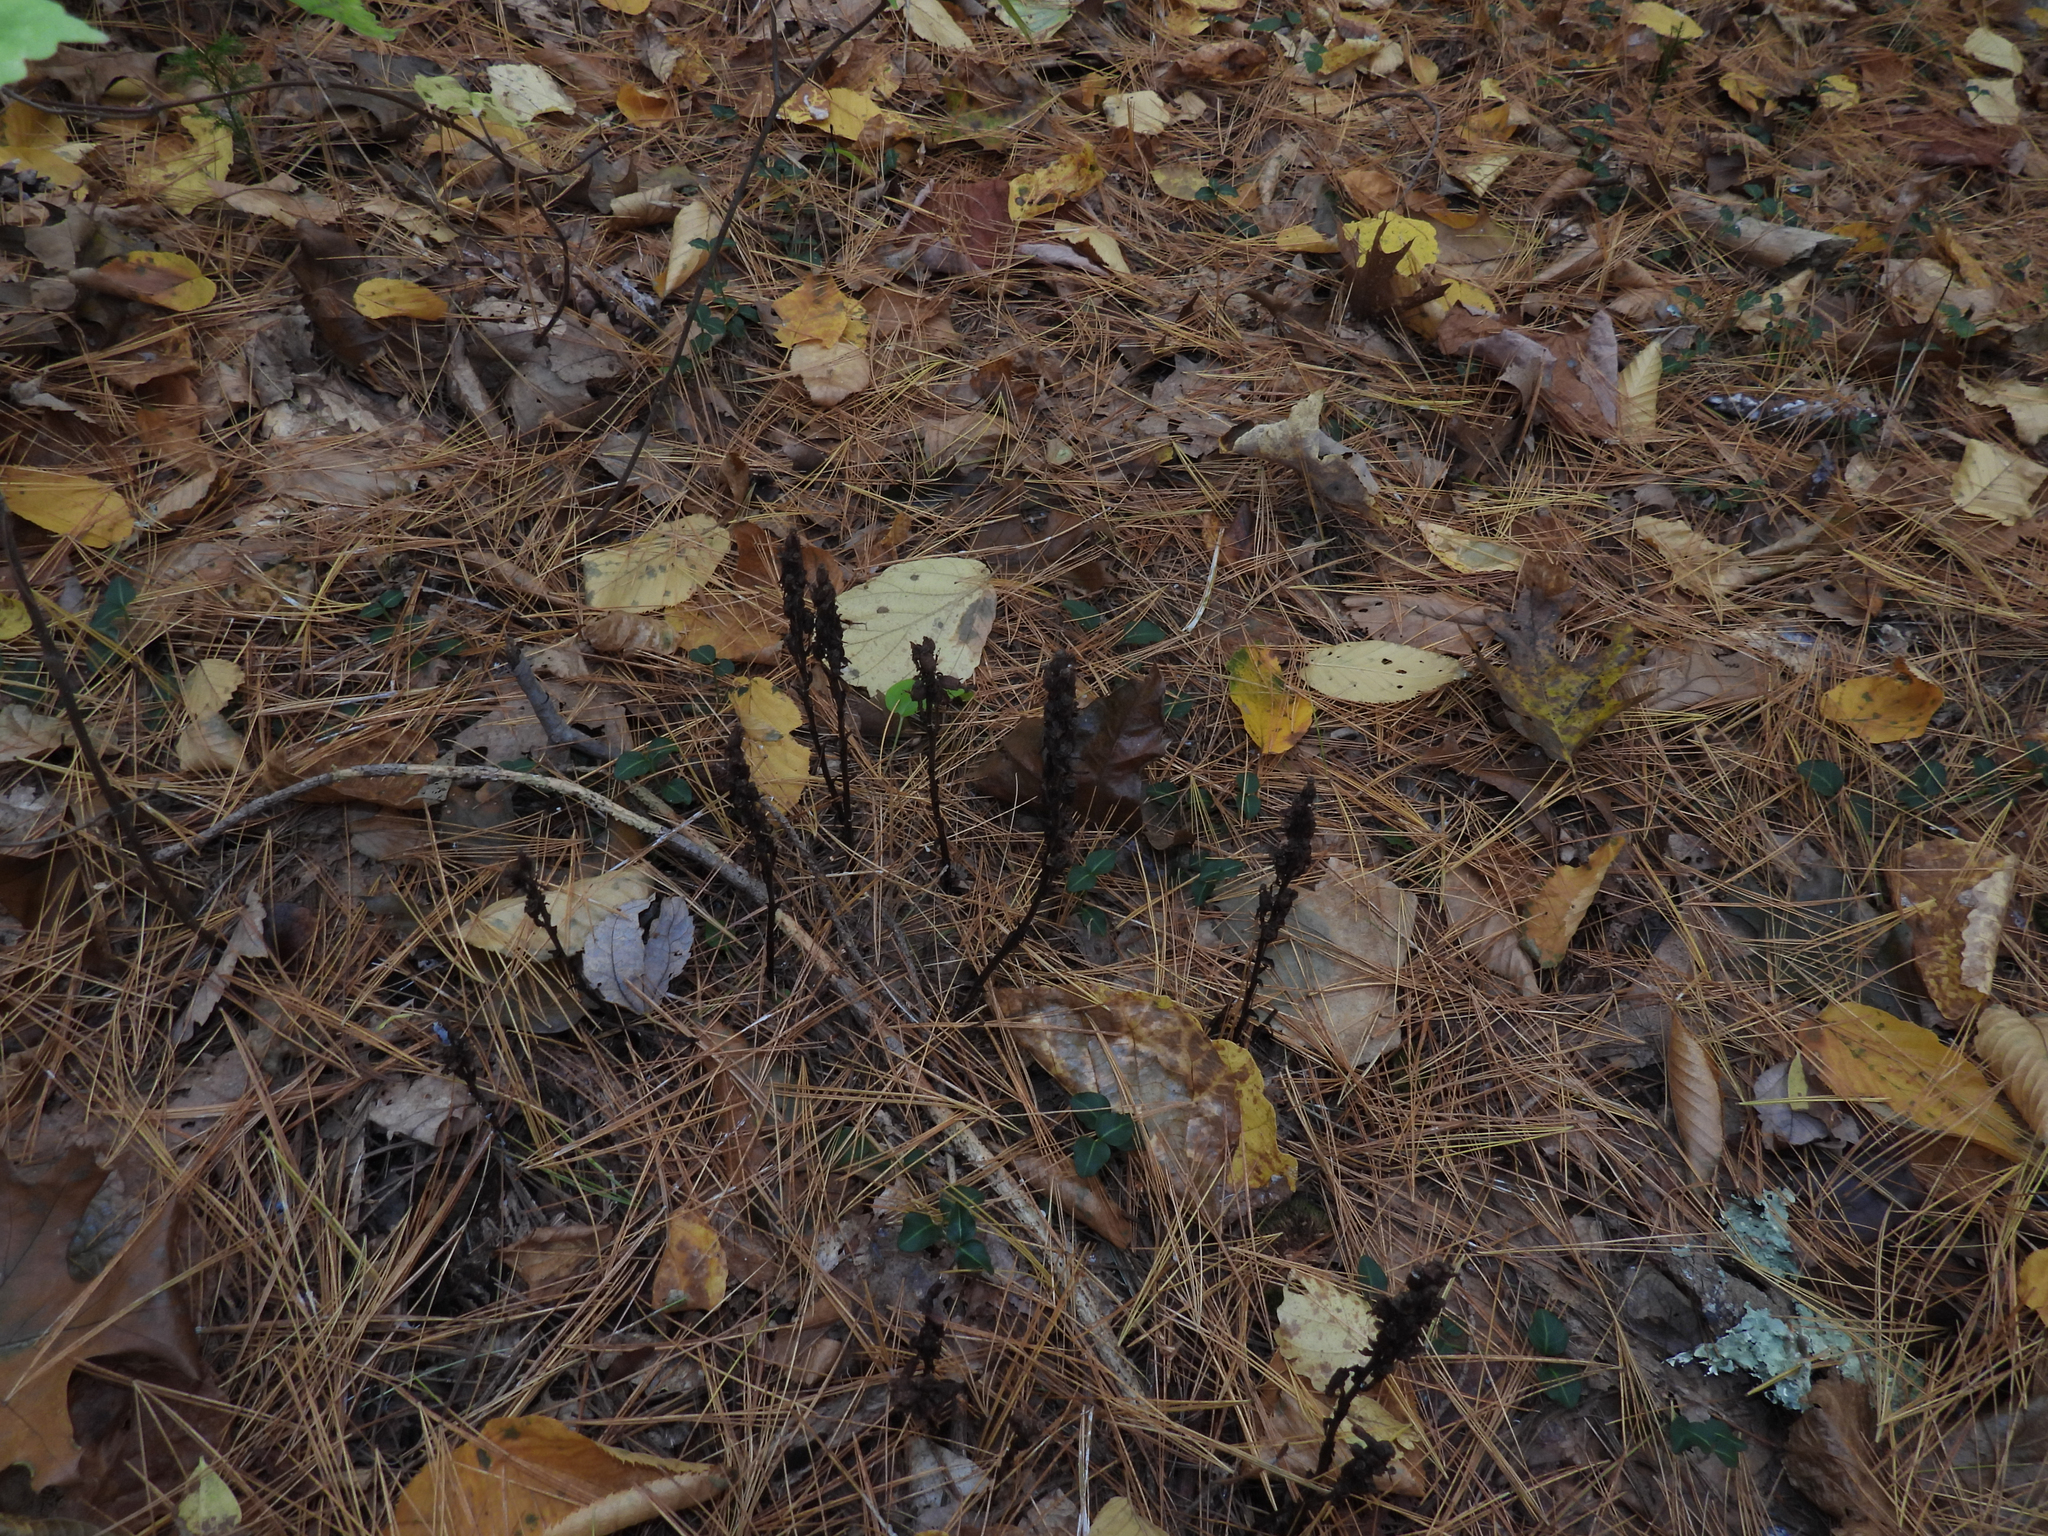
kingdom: Plantae
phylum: Tracheophyta
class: Magnoliopsida
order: Ericales
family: Ericaceae
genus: Hypopitys
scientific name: Hypopitys monotropa
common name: Yellow bird's-nest
